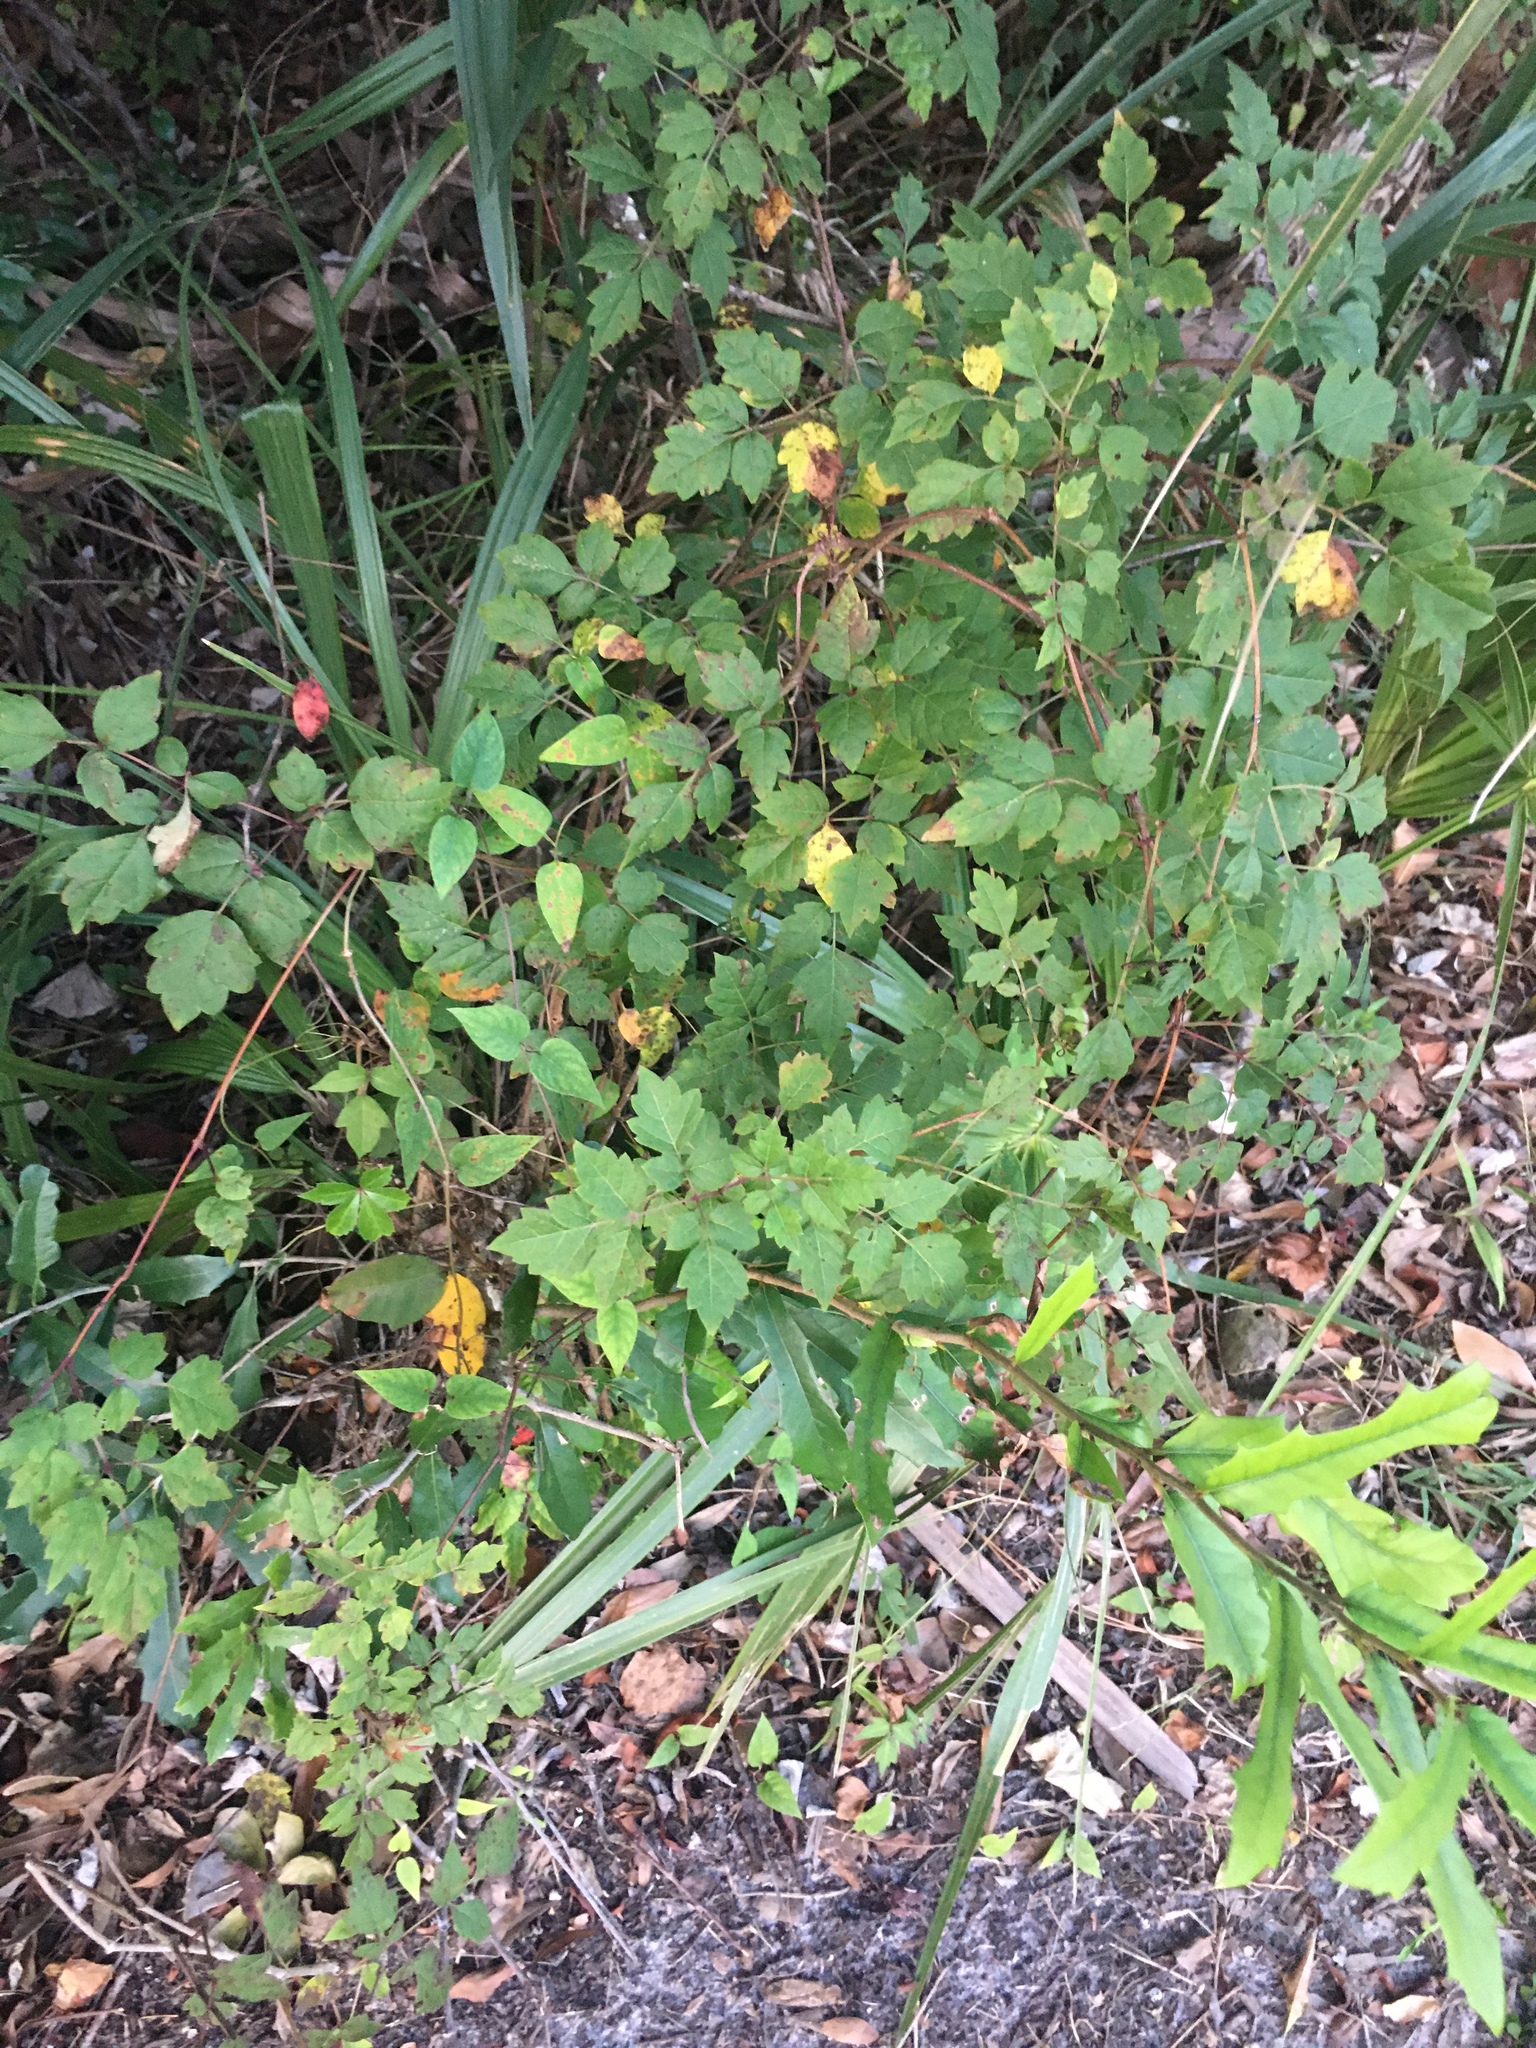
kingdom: Plantae
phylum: Tracheophyta
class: Magnoliopsida
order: Vitales
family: Vitaceae
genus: Nekemias
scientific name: Nekemias arborea
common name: Peppervine
